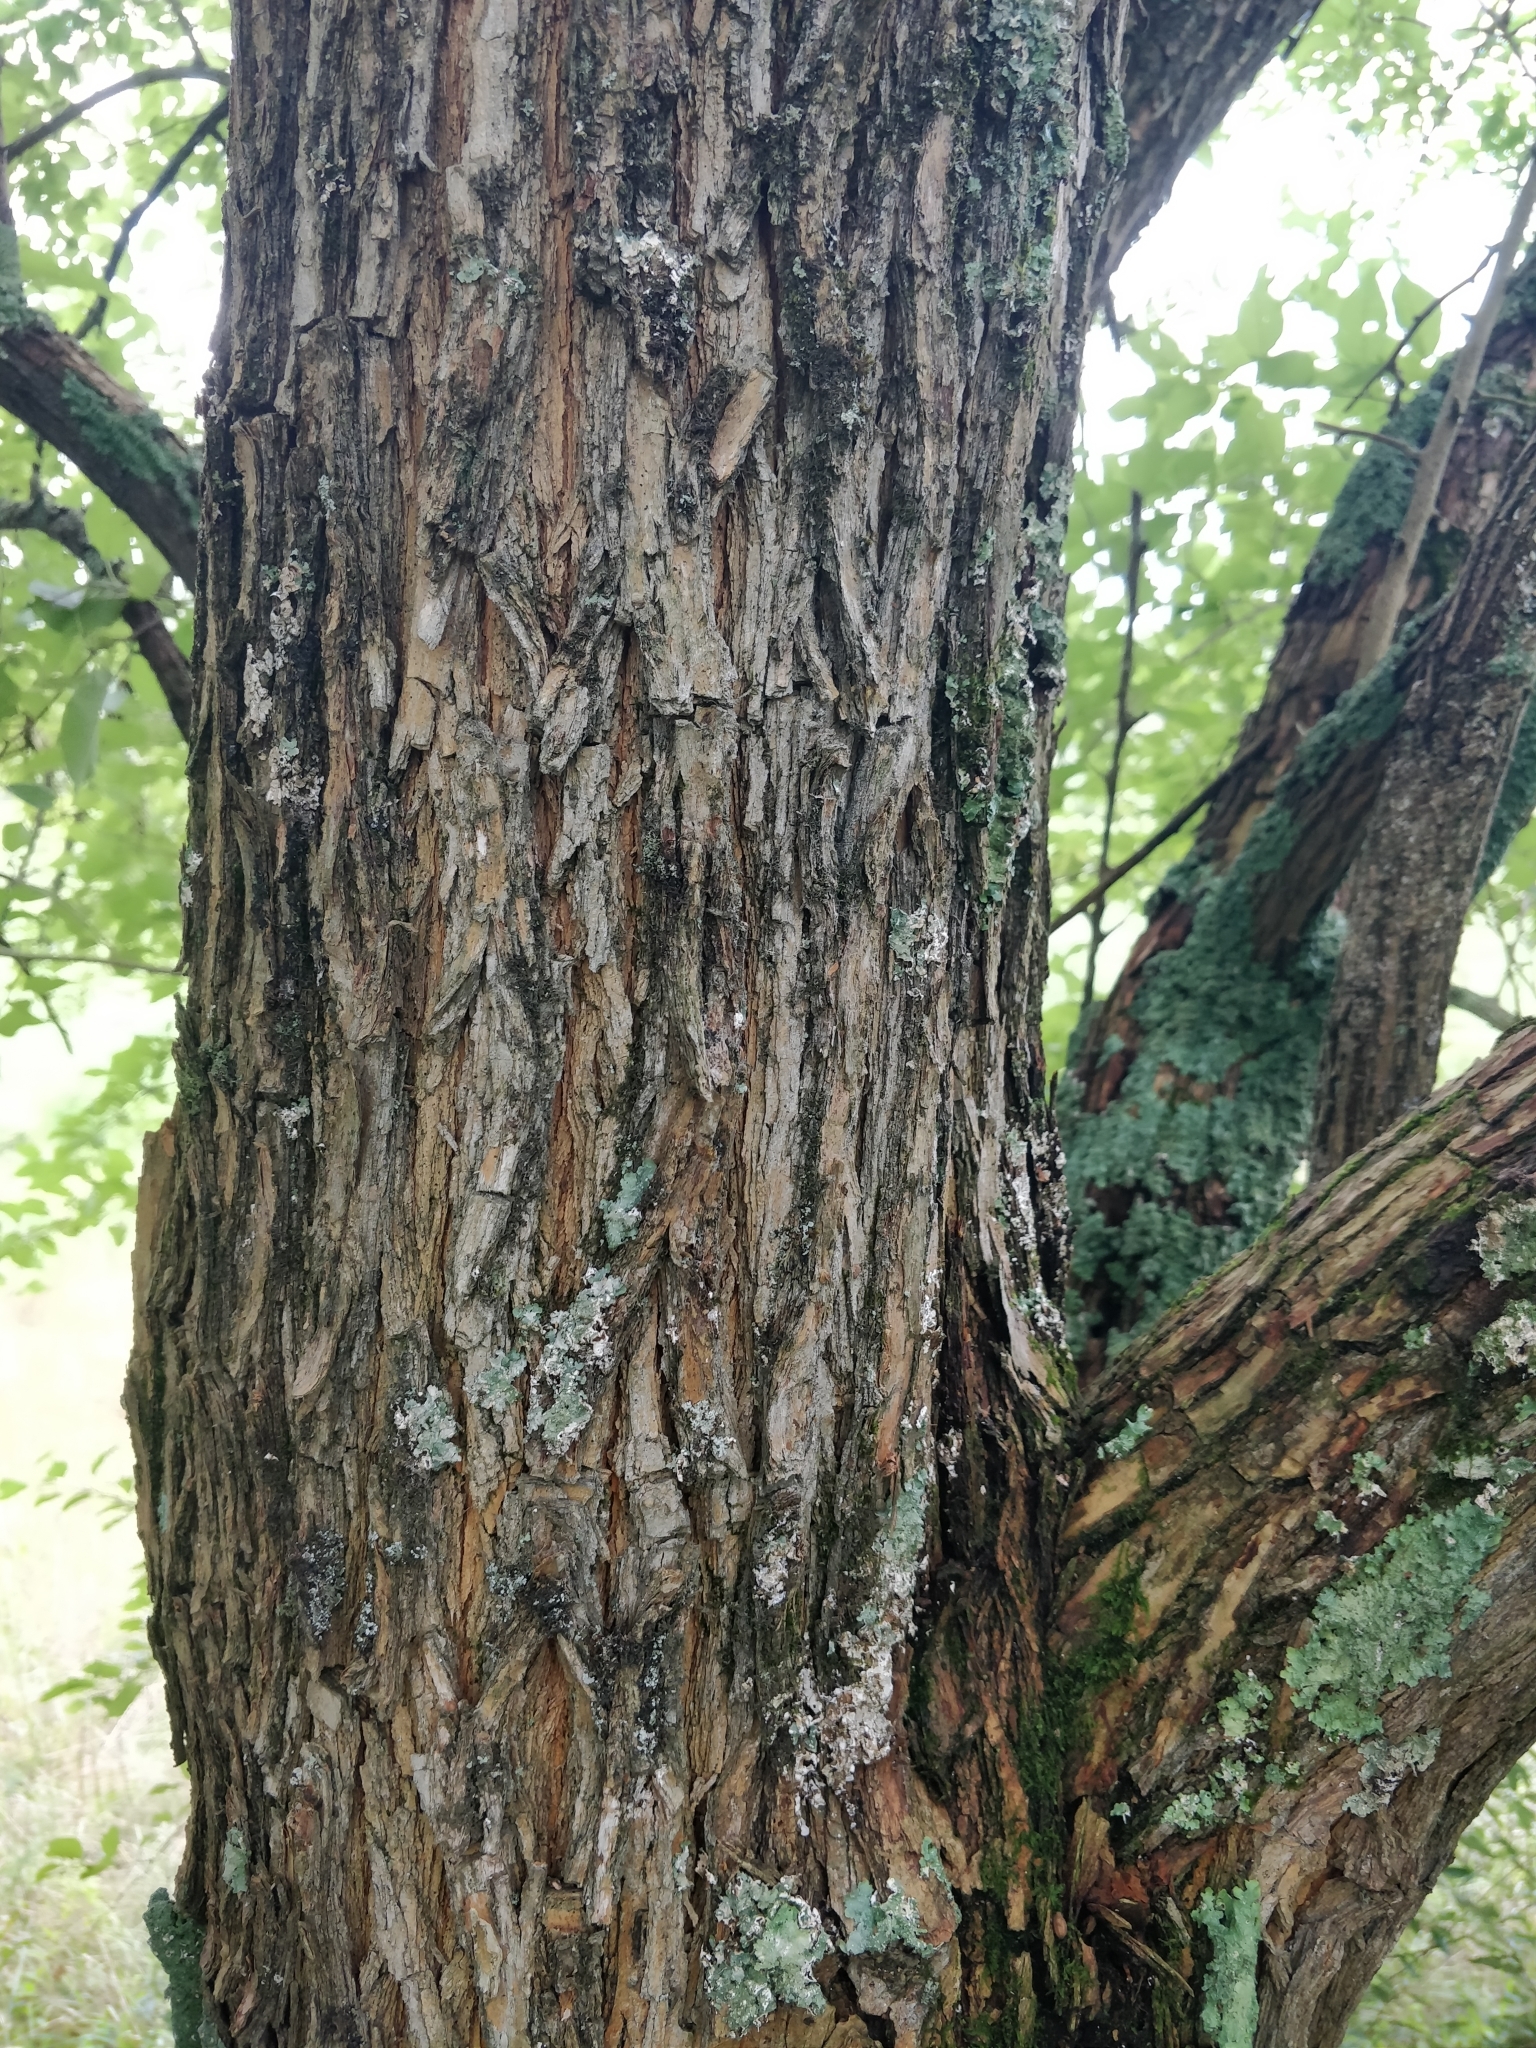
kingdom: Plantae
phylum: Tracheophyta
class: Magnoliopsida
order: Rosales
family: Moraceae
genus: Maclura
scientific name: Maclura pomifera
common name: Osage-orange
